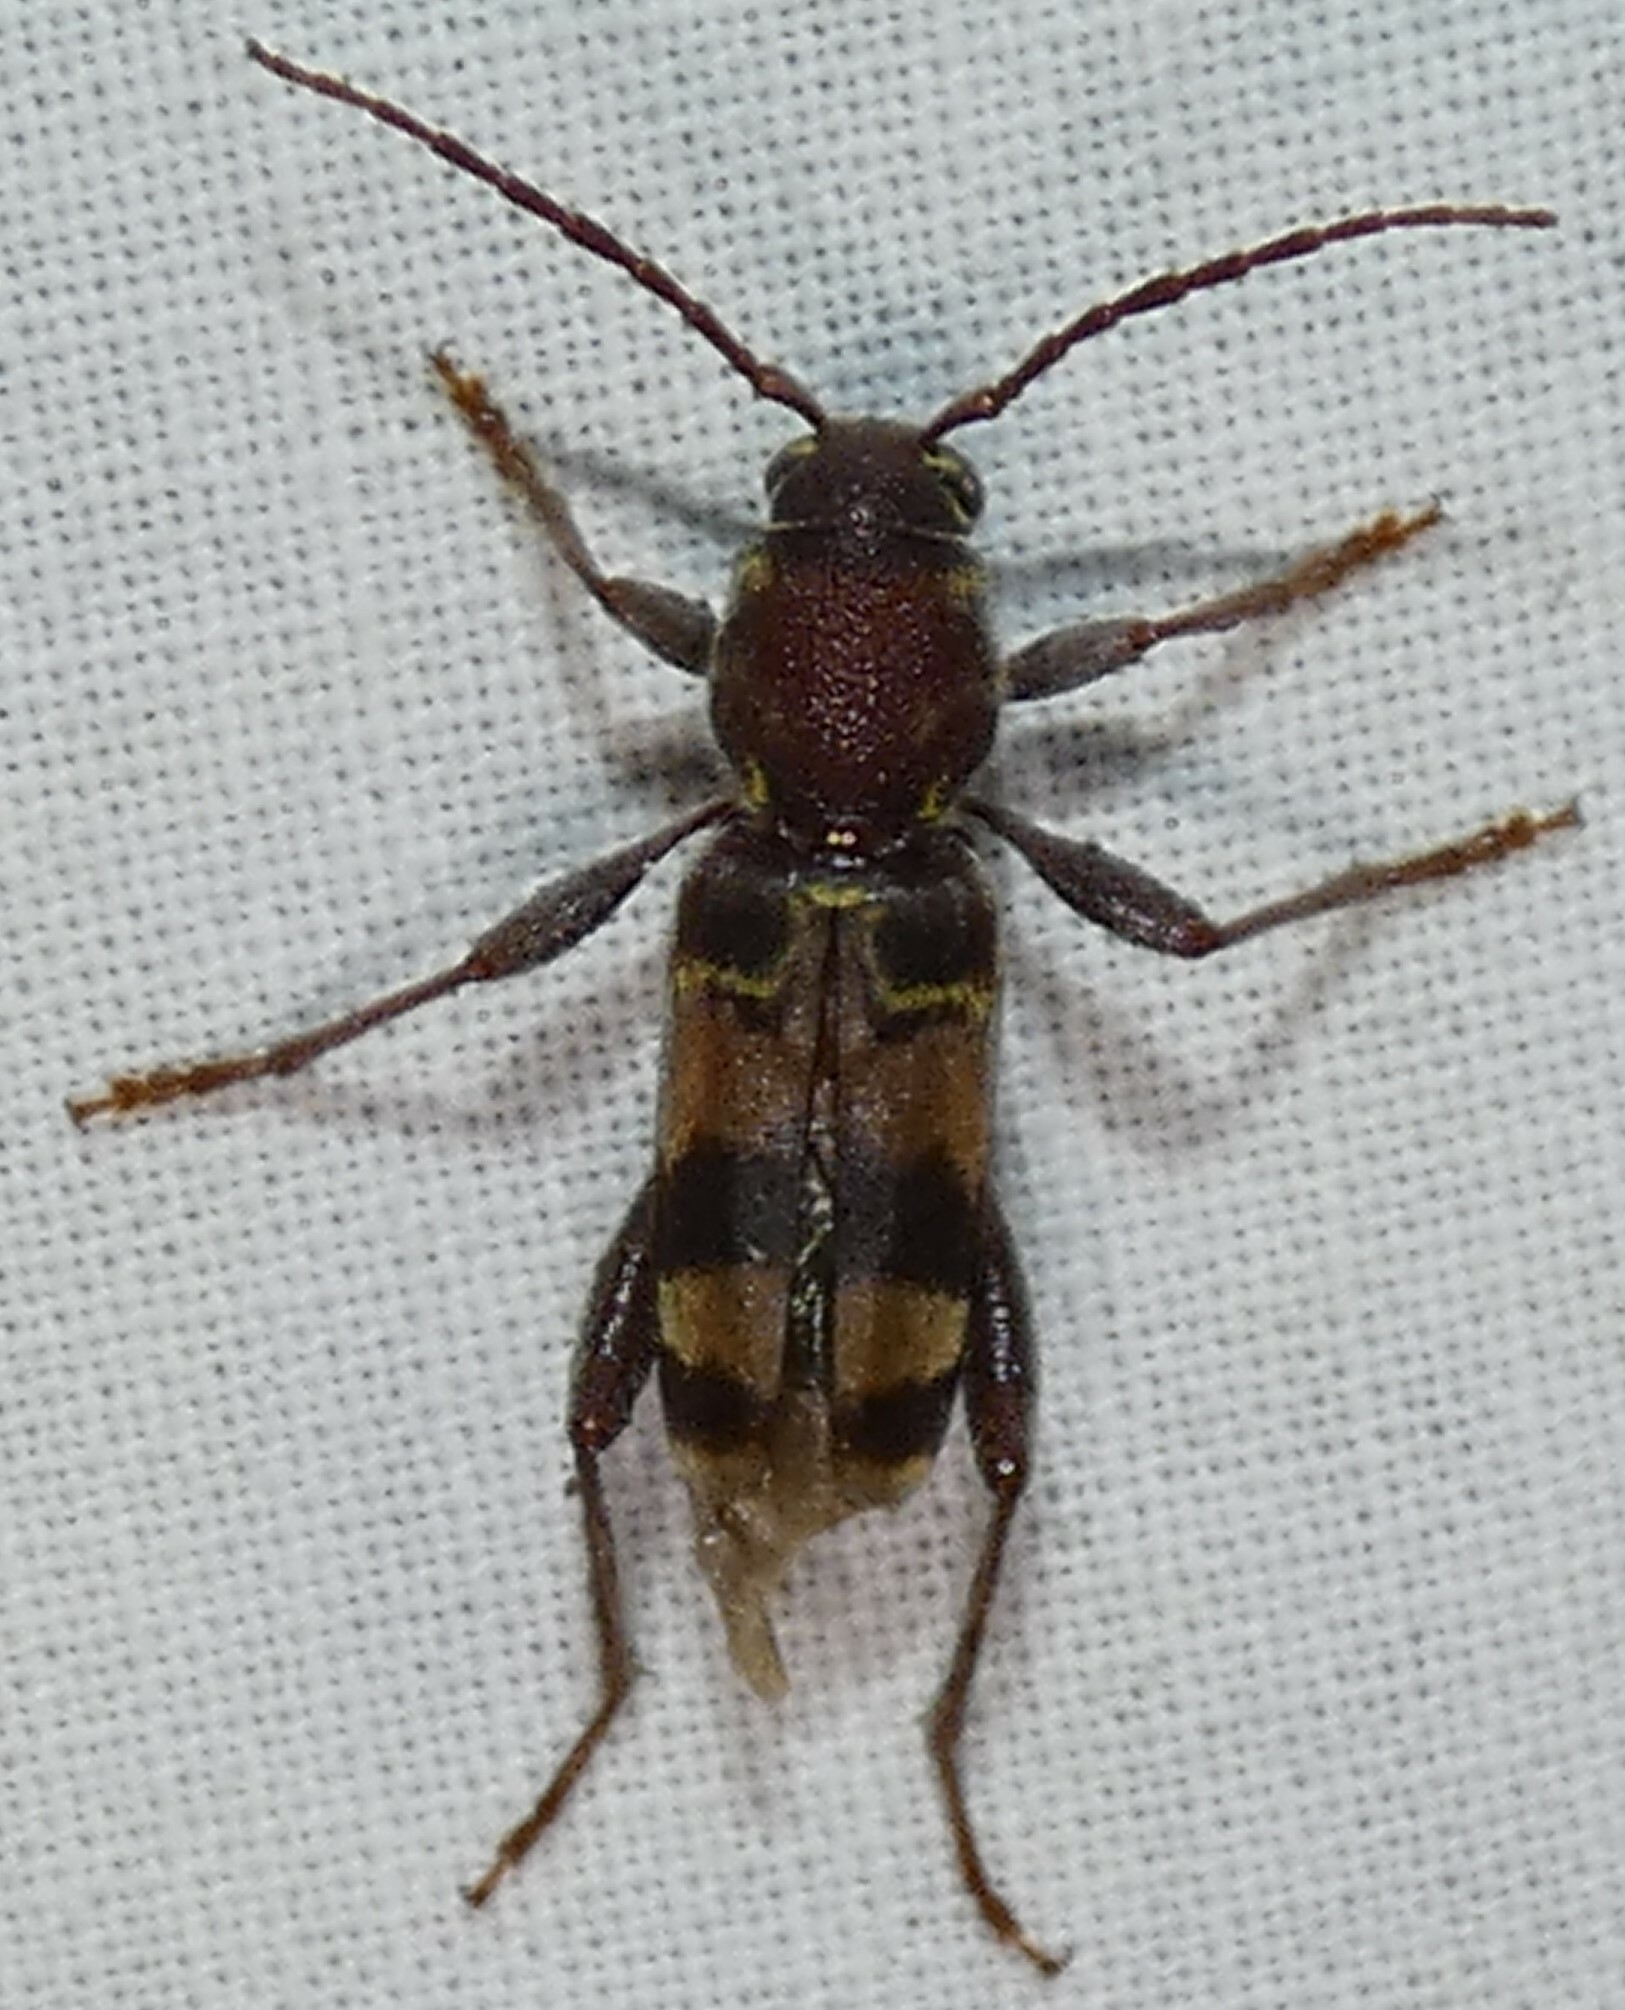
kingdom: Animalia
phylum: Arthropoda
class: Insecta
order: Coleoptera
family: Cerambycidae
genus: Xylotrechus
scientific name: Xylotrechus colonus
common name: Long-horned beetle
